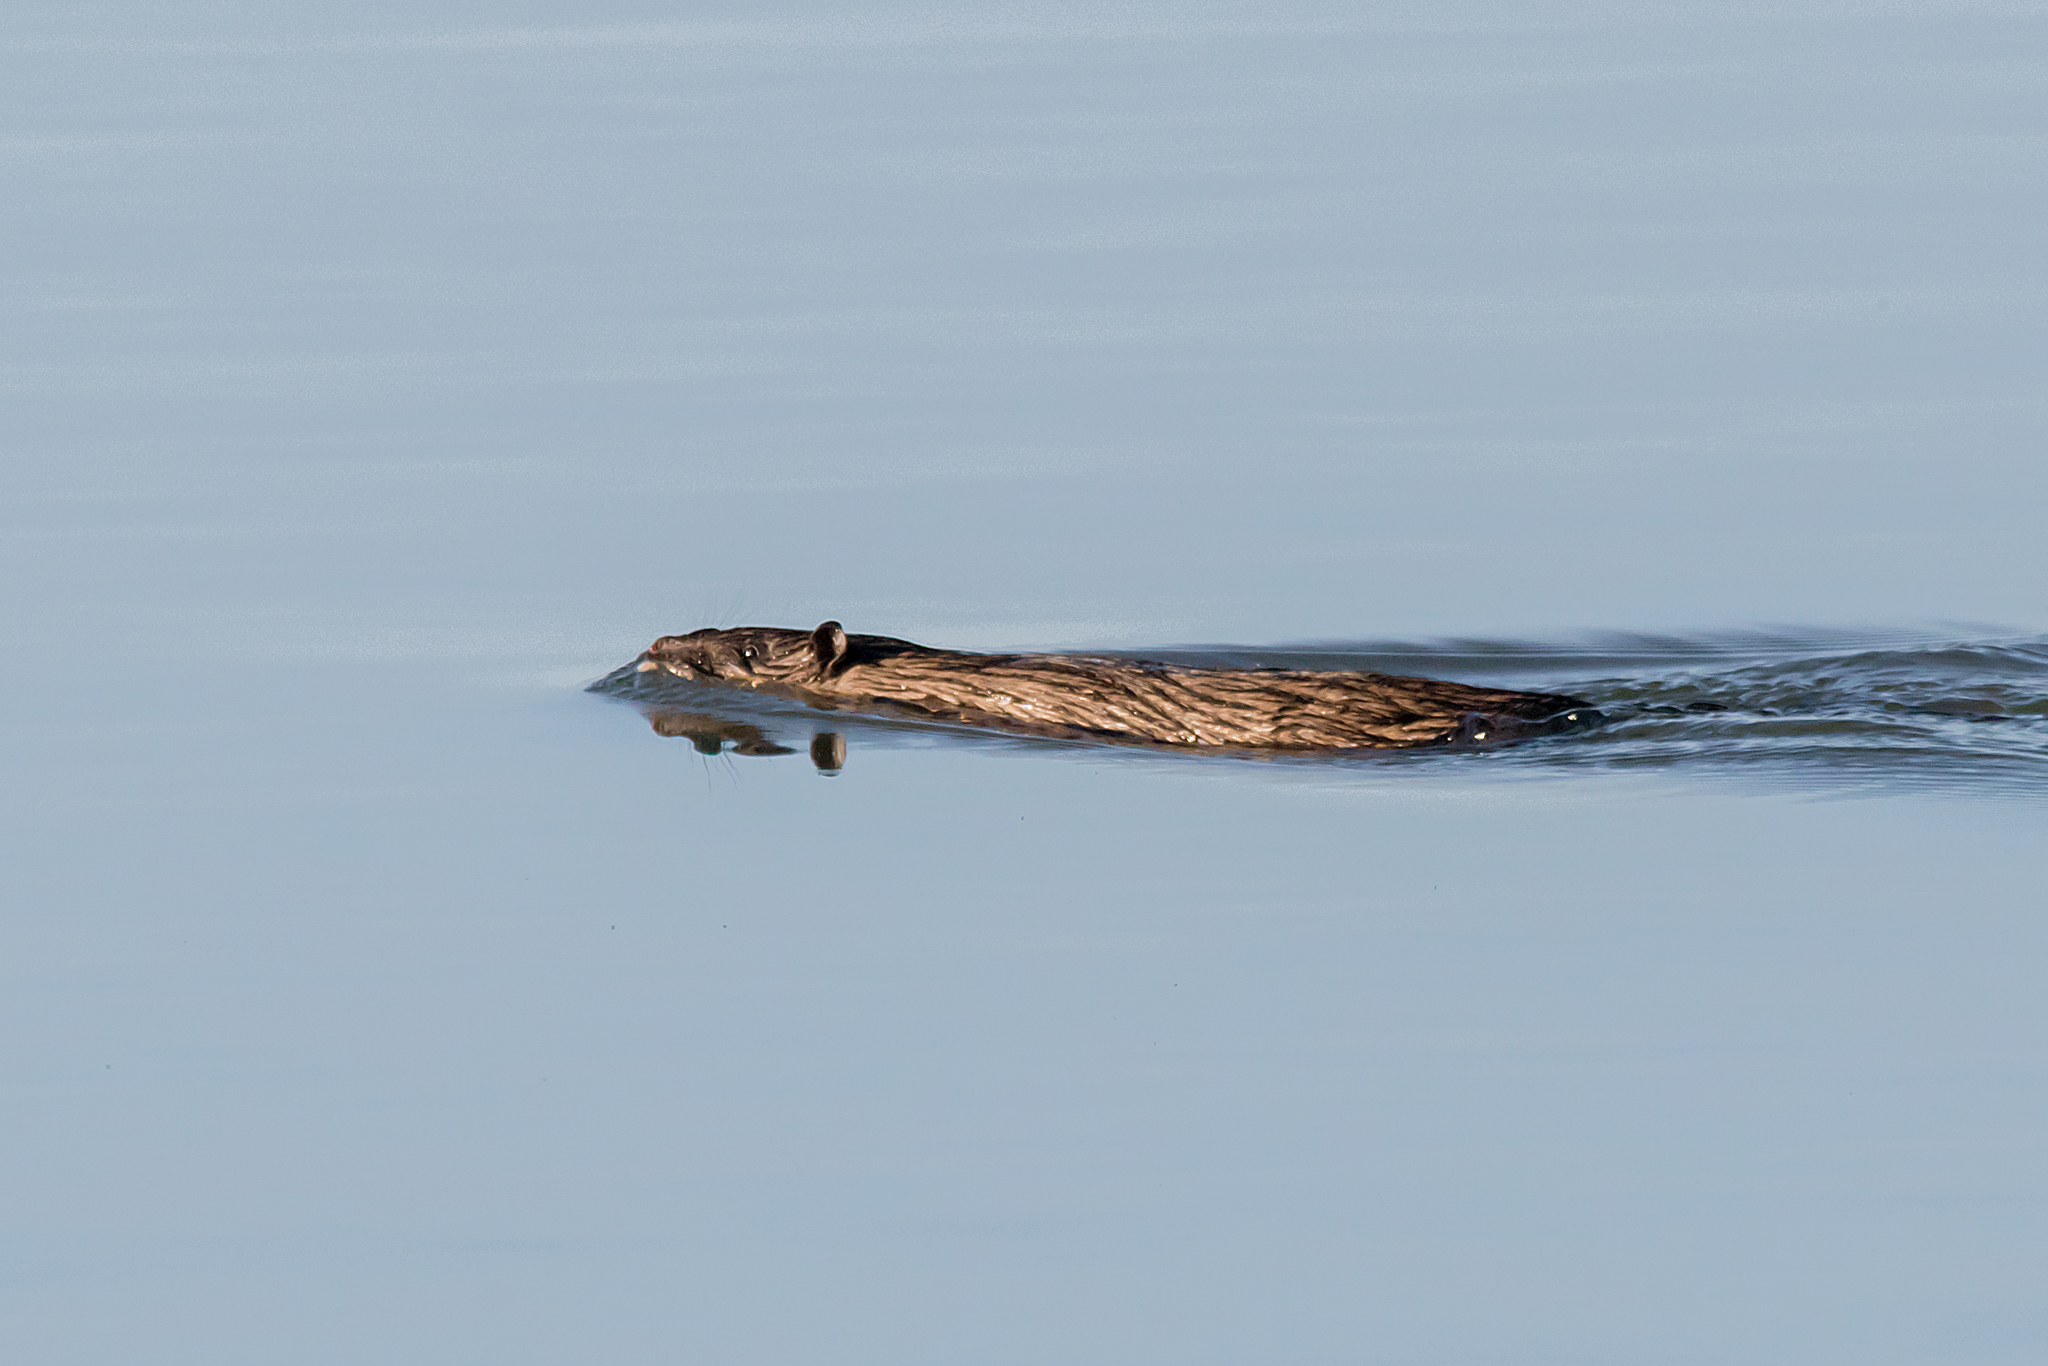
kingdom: Animalia
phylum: Chordata
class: Mammalia
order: Rodentia
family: Muridae
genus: Hydromys
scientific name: Hydromys chrysogaster
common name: Common water rat
